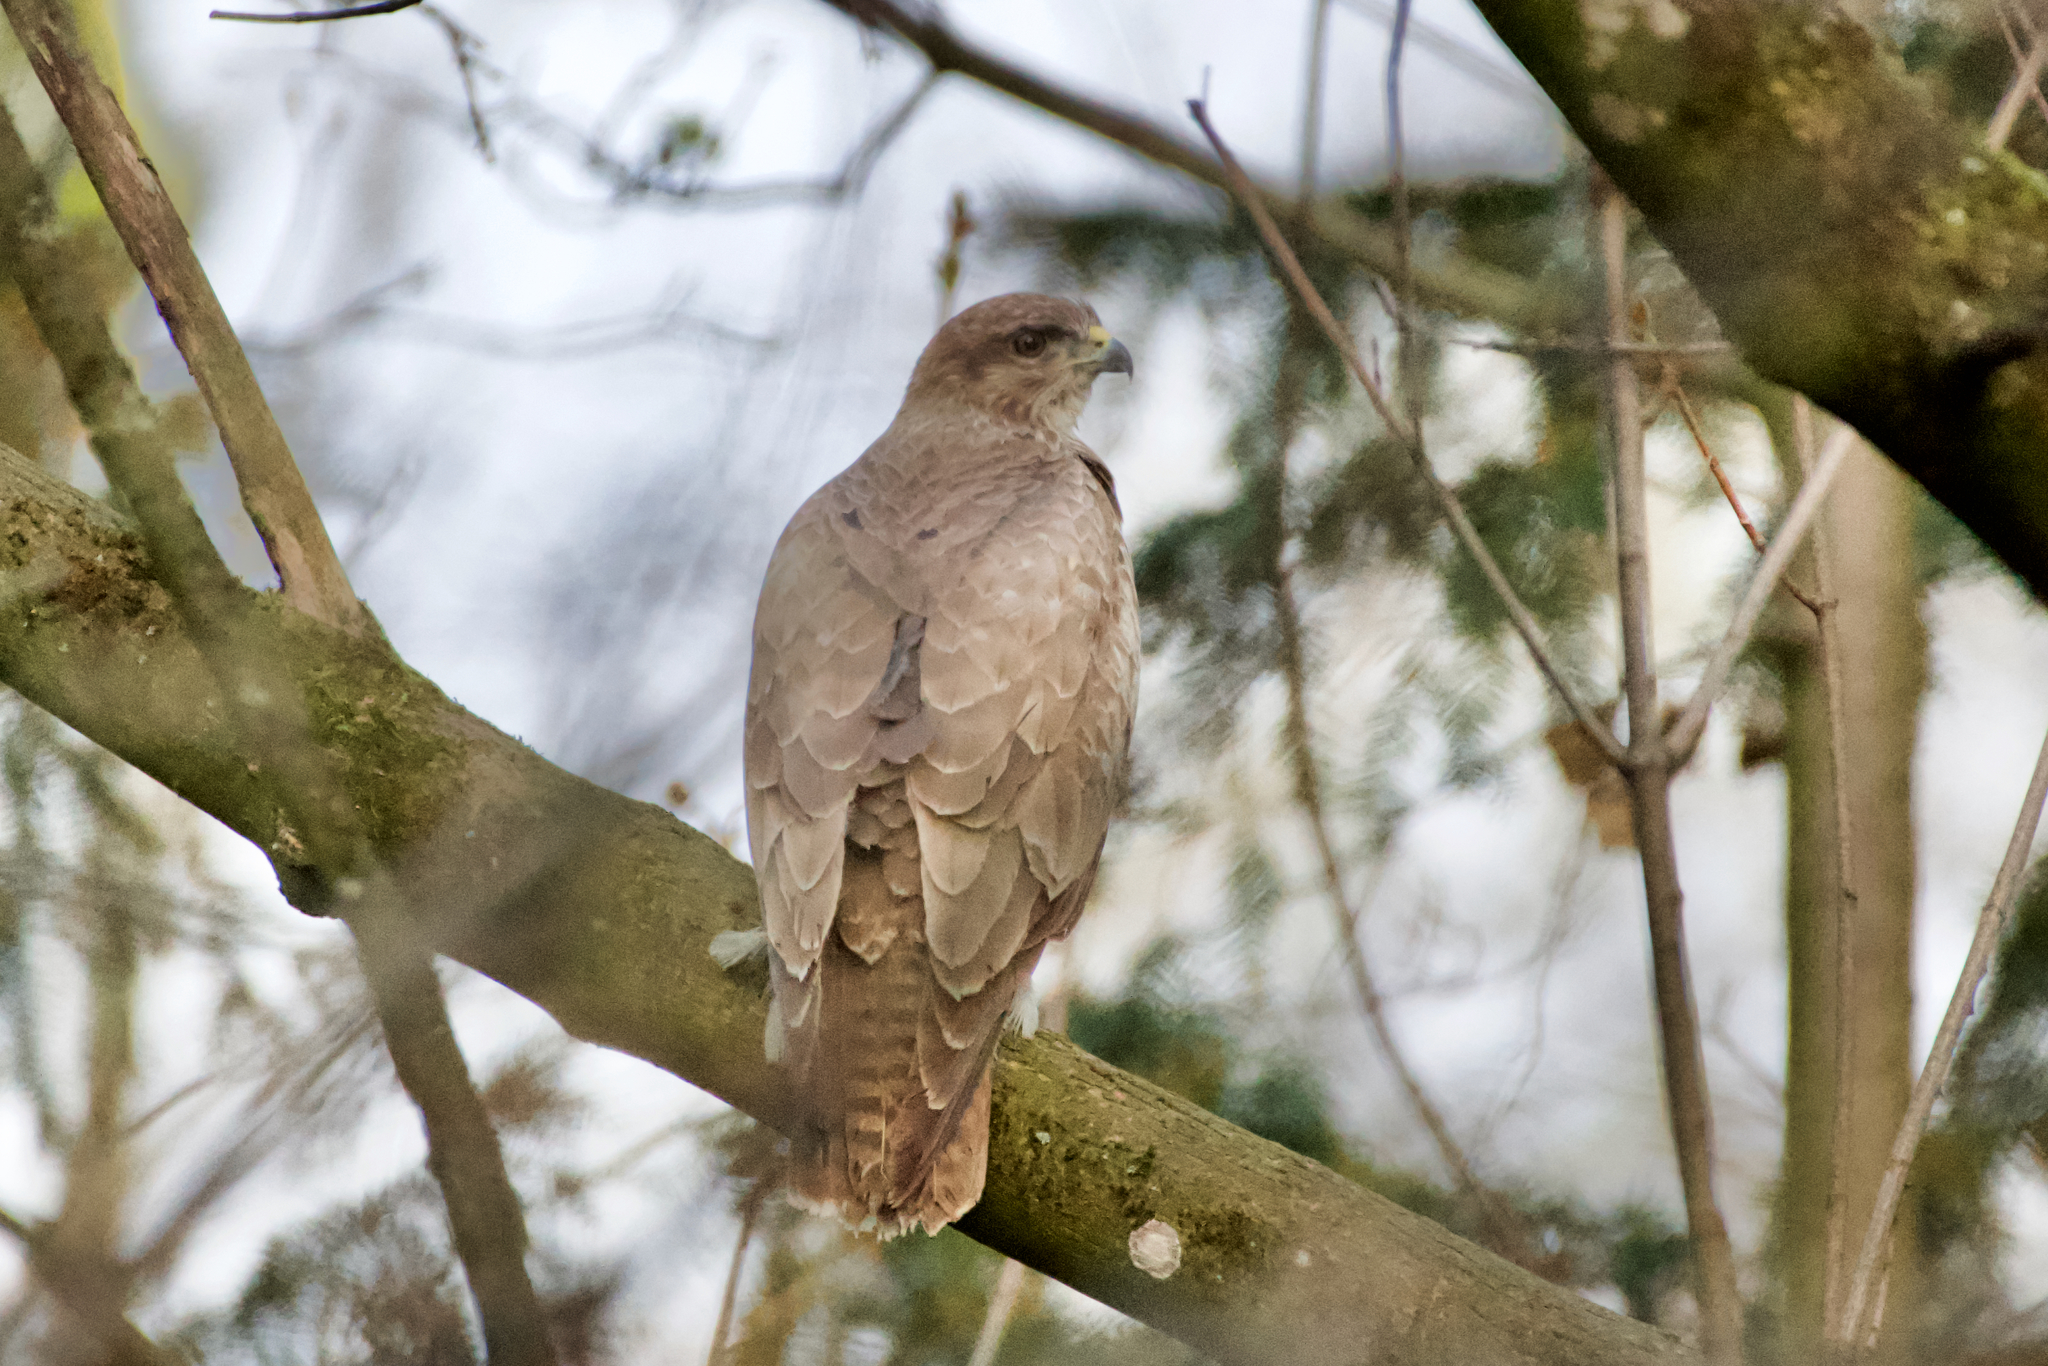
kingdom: Animalia
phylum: Chordata
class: Aves
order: Accipitriformes
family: Accipitridae
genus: Buteo
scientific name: Buteo buteo
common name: Common buzzard
